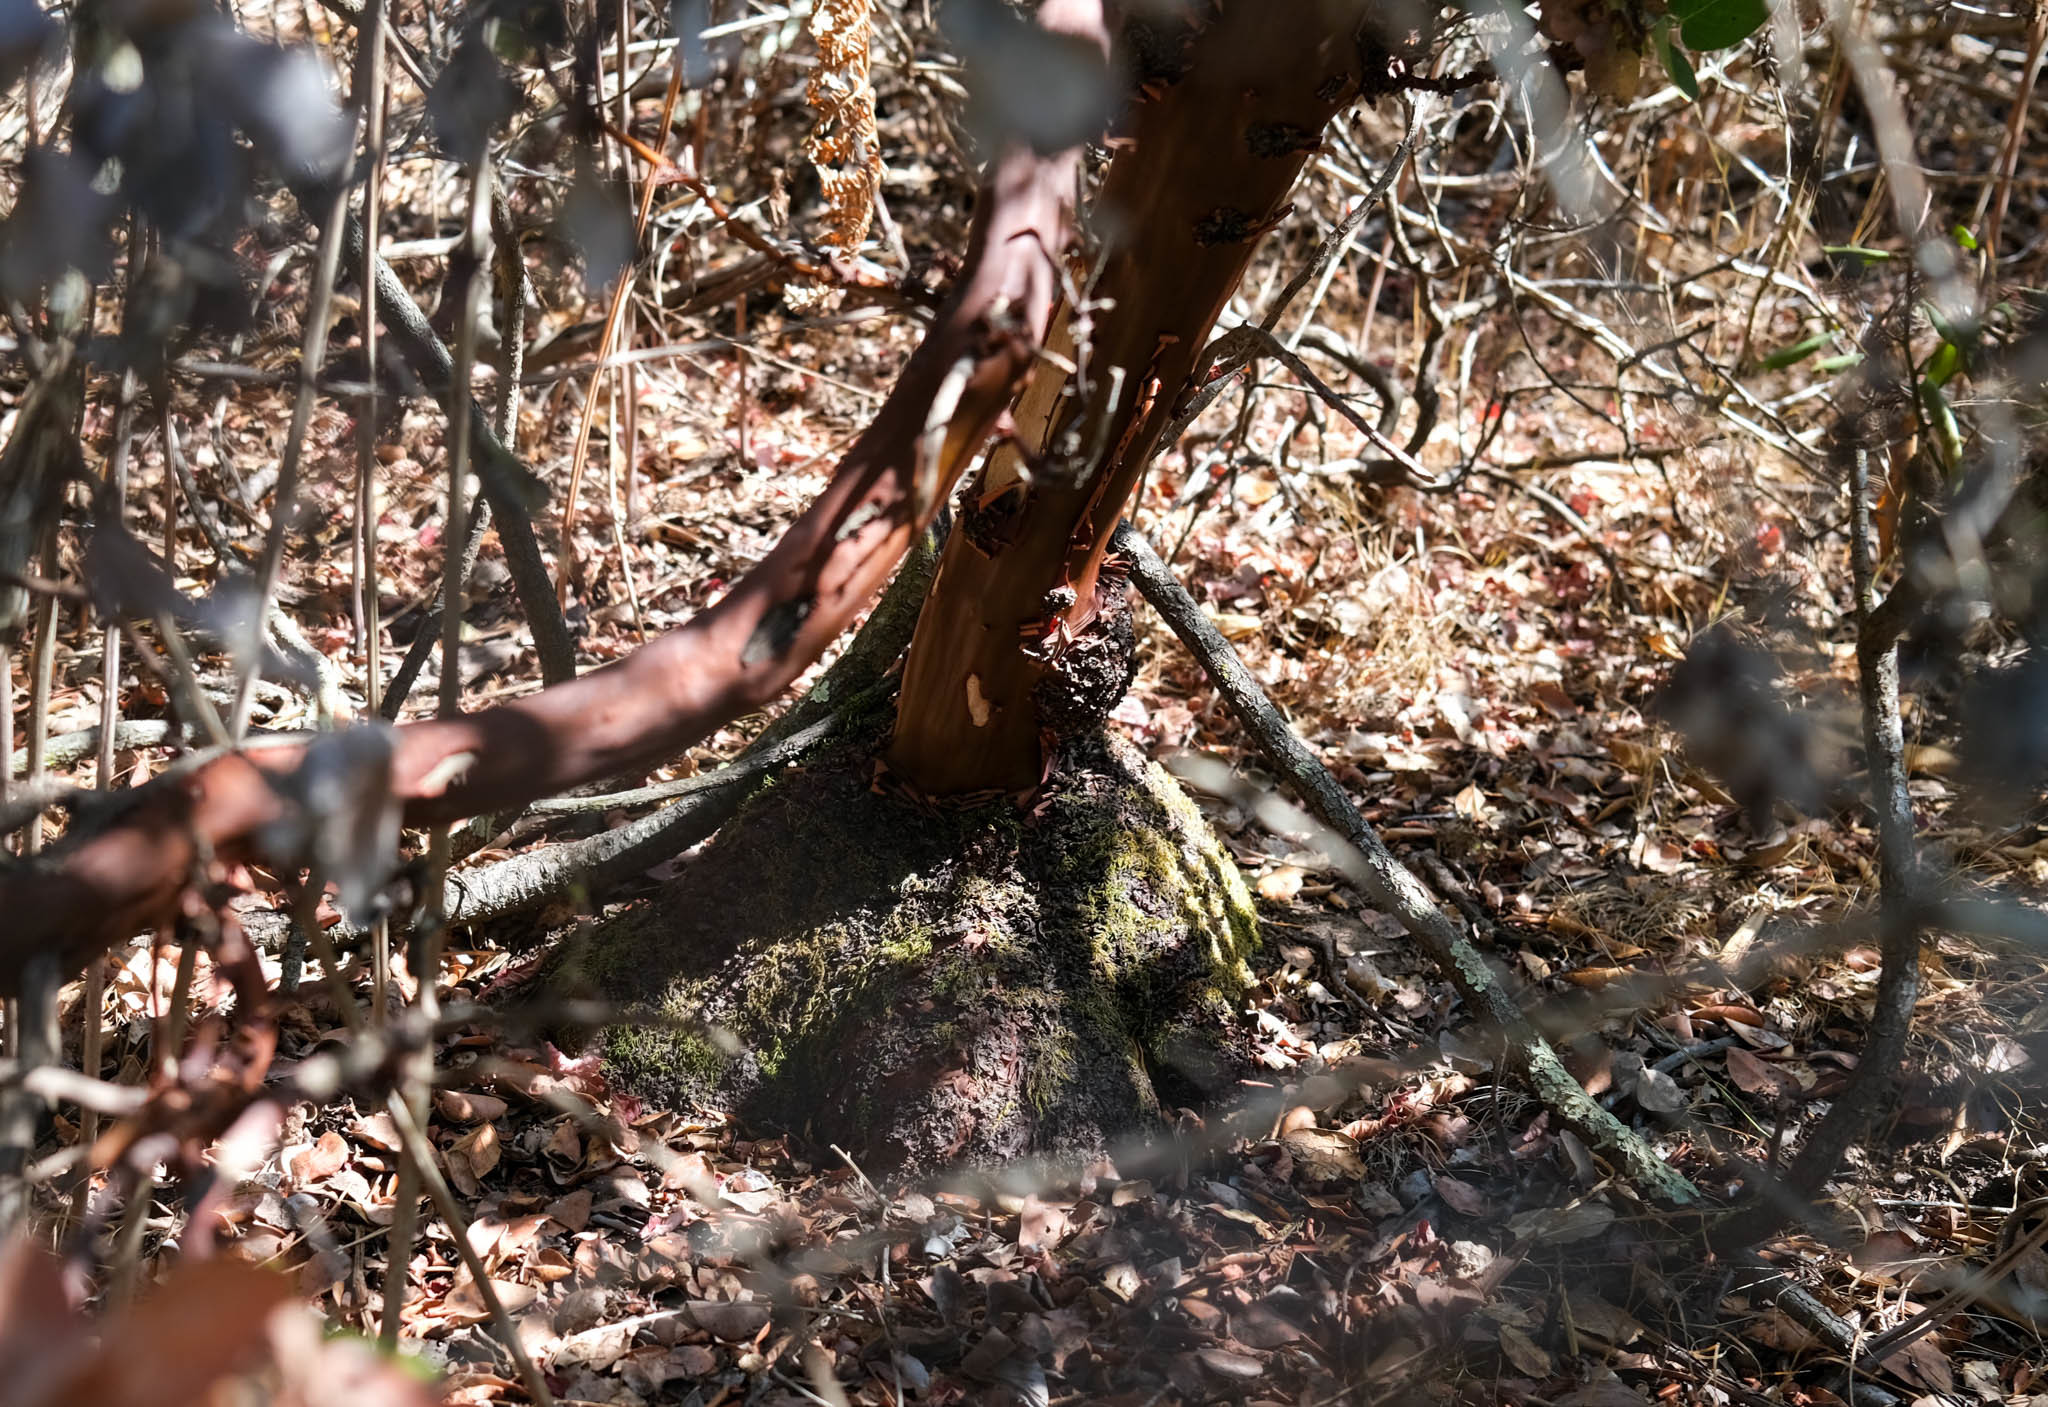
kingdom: Plantae
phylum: Tracheophyta
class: Magnoliopsida
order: Ericales
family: Ericaceae
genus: Arctostaphylos
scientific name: Arctostaphylos crustacea
